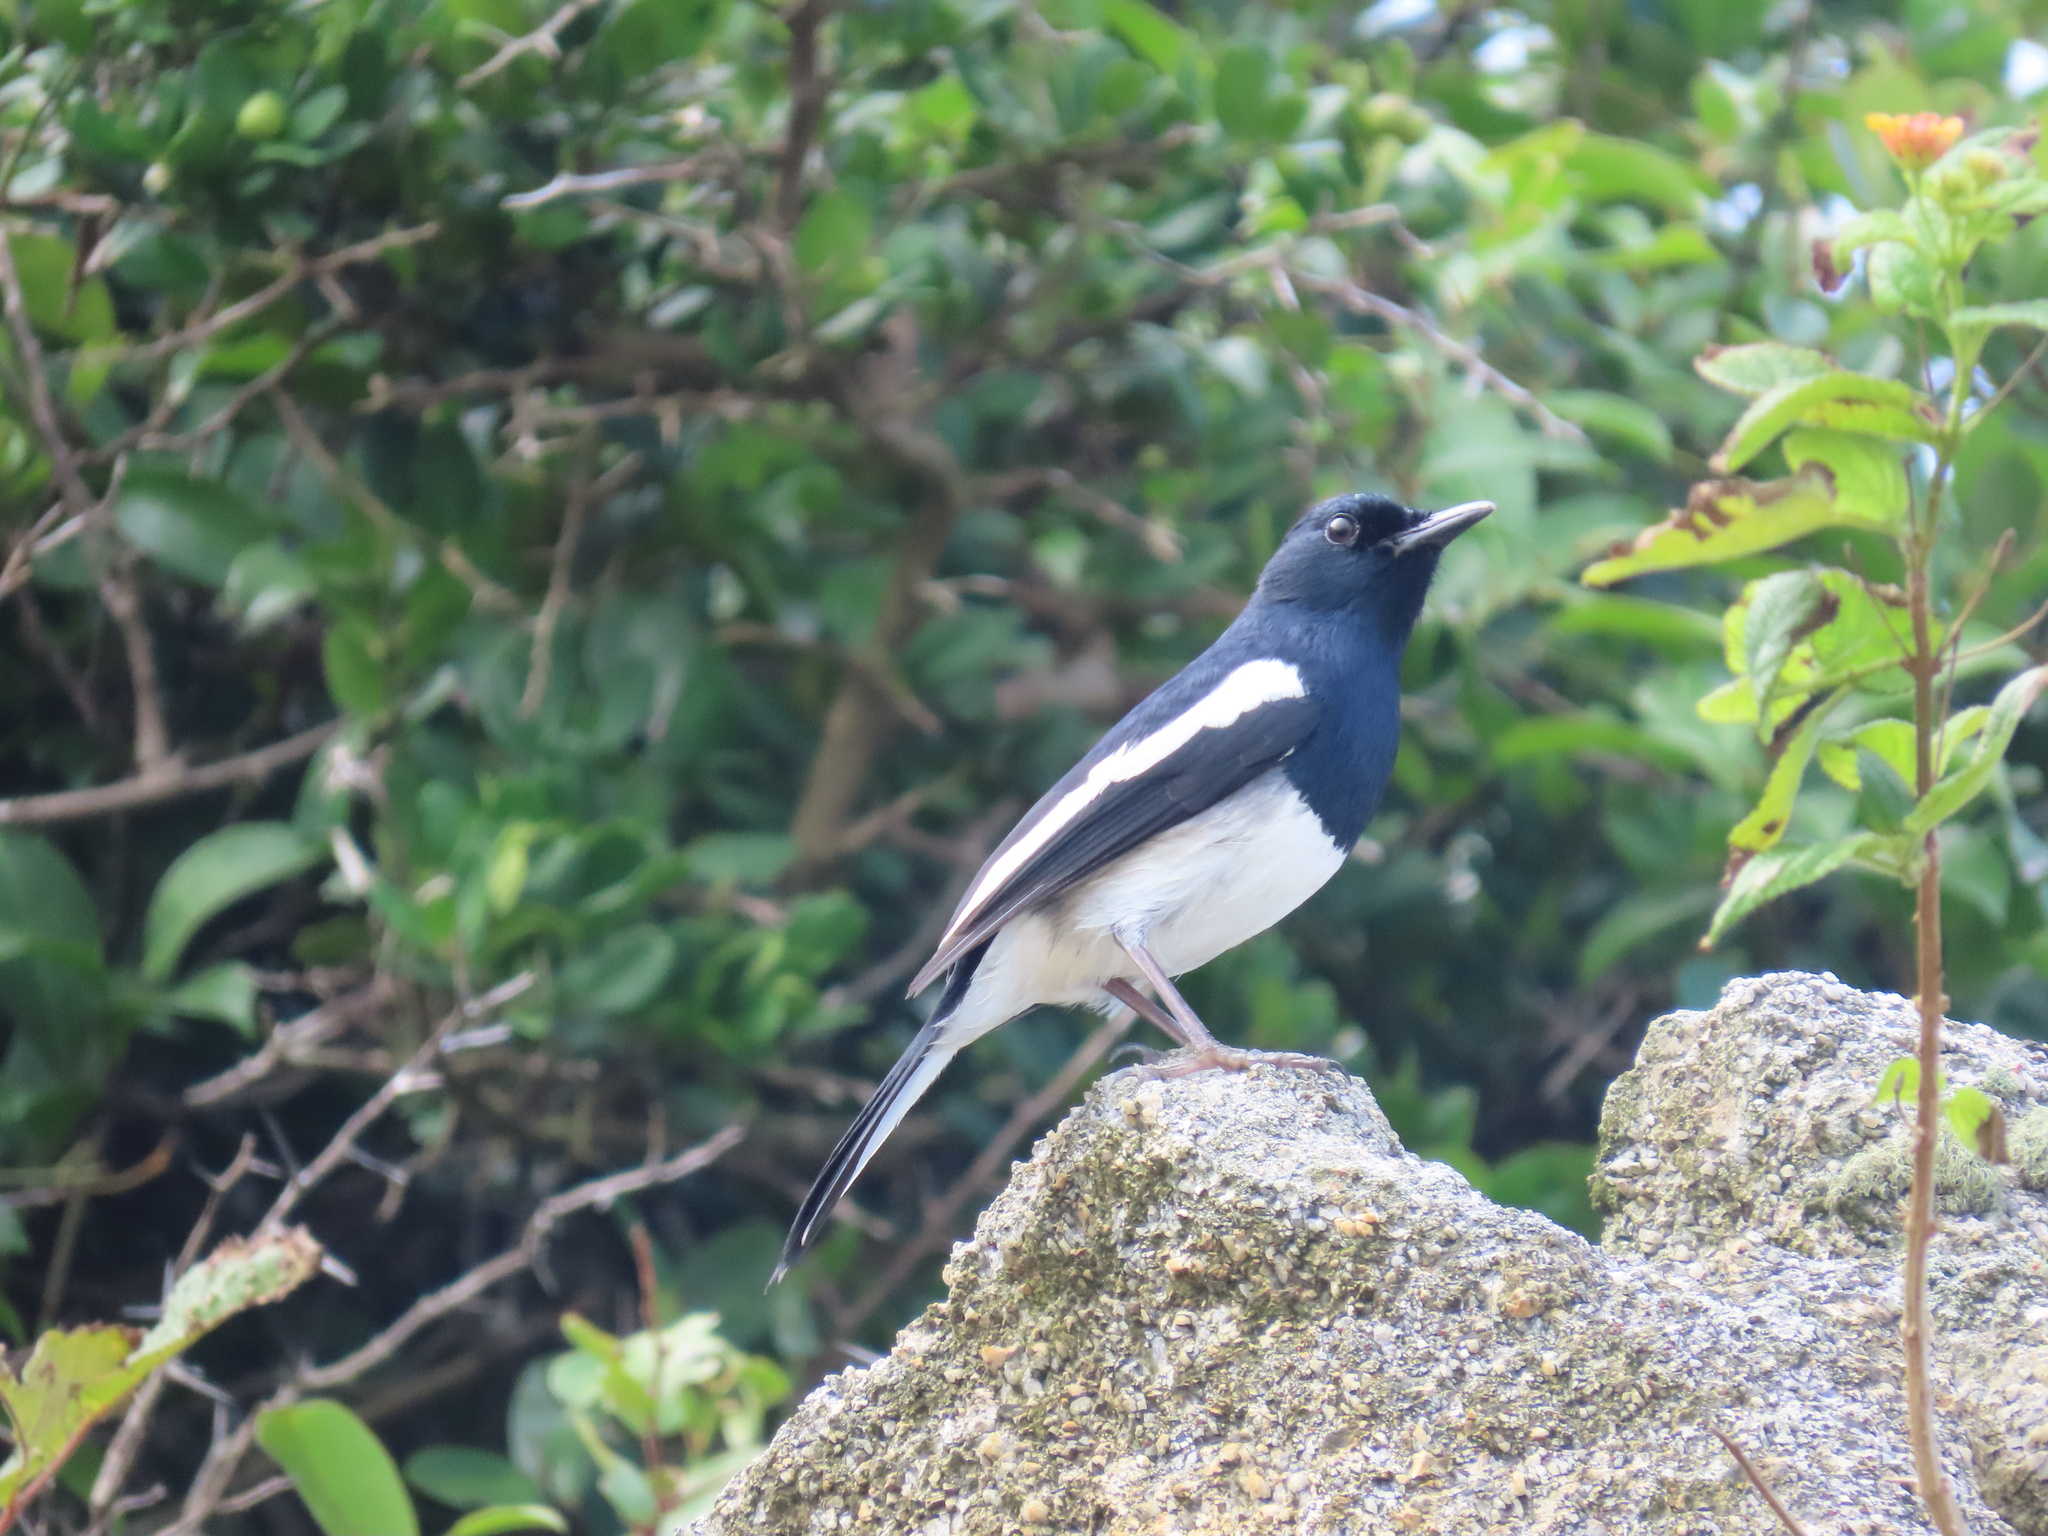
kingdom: Animalia
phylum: Chordata
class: Aves
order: Passeriformes
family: Muscicapidae
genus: Copsychus
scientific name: Copsychus saularis
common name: Oriental magpie-robin
